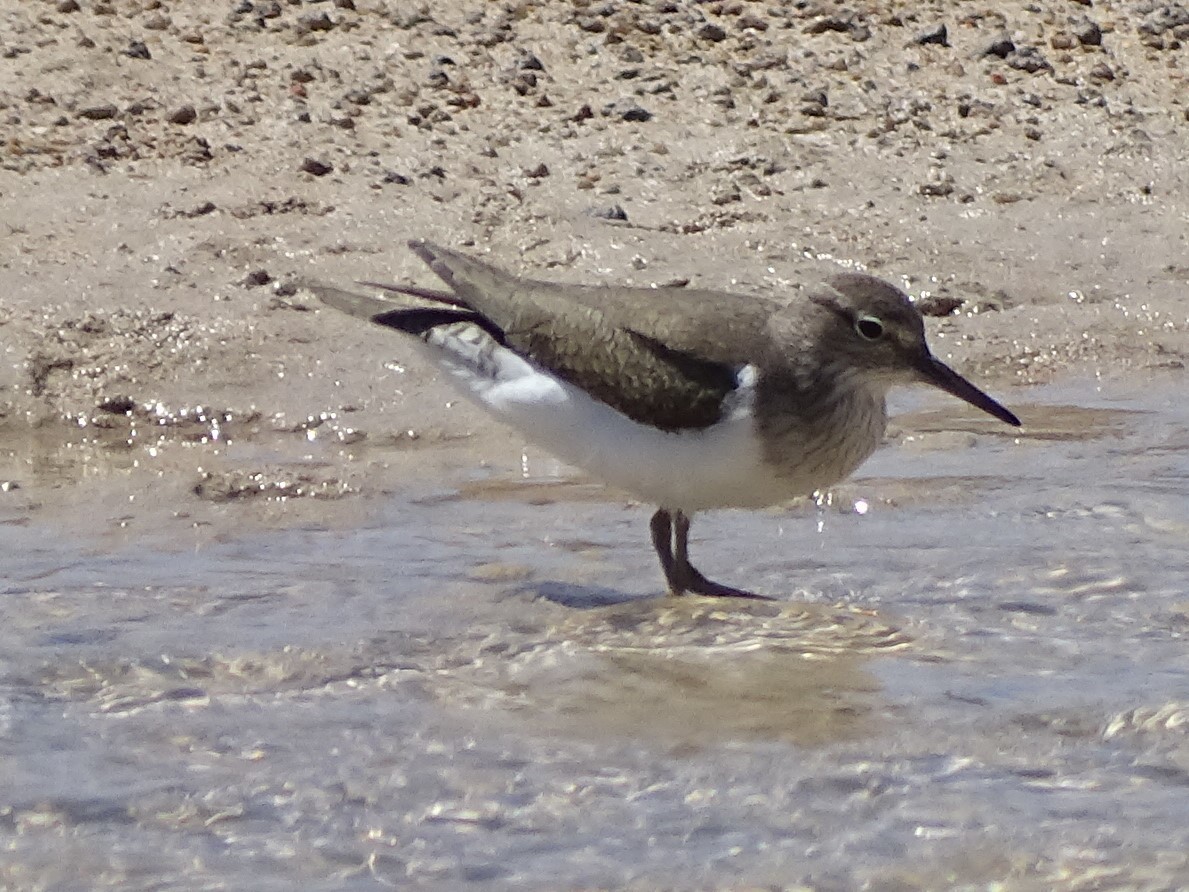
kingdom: Animalia
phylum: Chordata
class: Aves
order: Charadriiformes
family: Scolopacidae
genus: Actitis
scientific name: Actitis hypoleucos
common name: Common sandpiper
